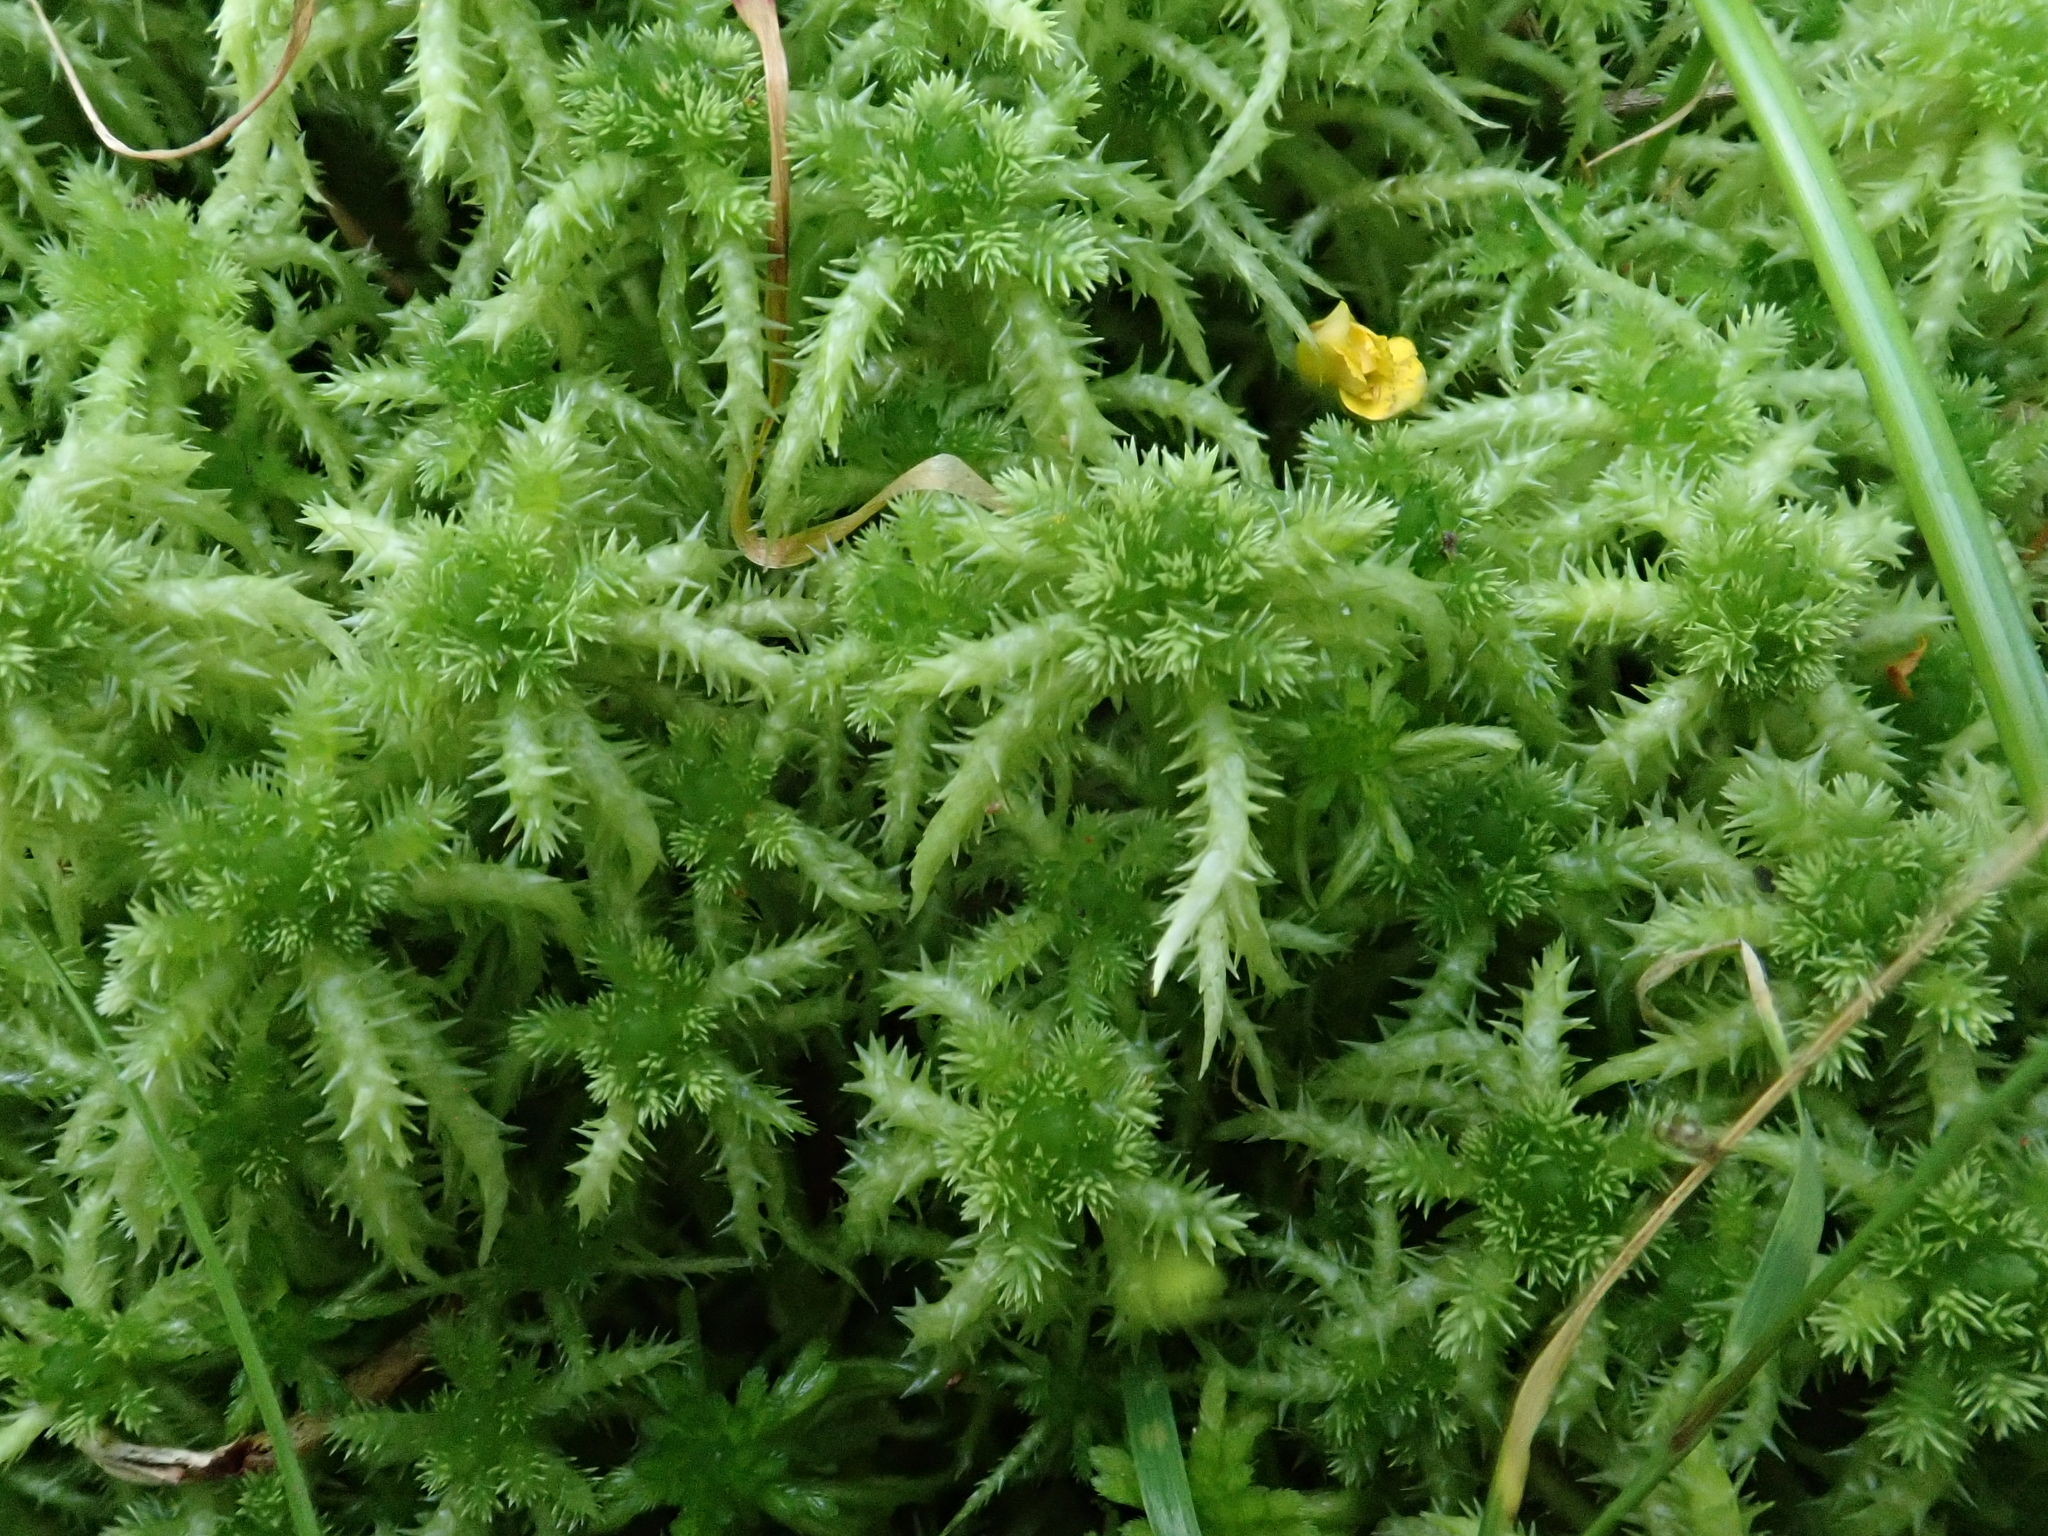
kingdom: Plantae
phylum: Bryophyta
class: Sphagnopsida
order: Sphagnales
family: Sphagnaceae
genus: Sphagnum
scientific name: Sphagnum squarrosum
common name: Shaggy peat moss
